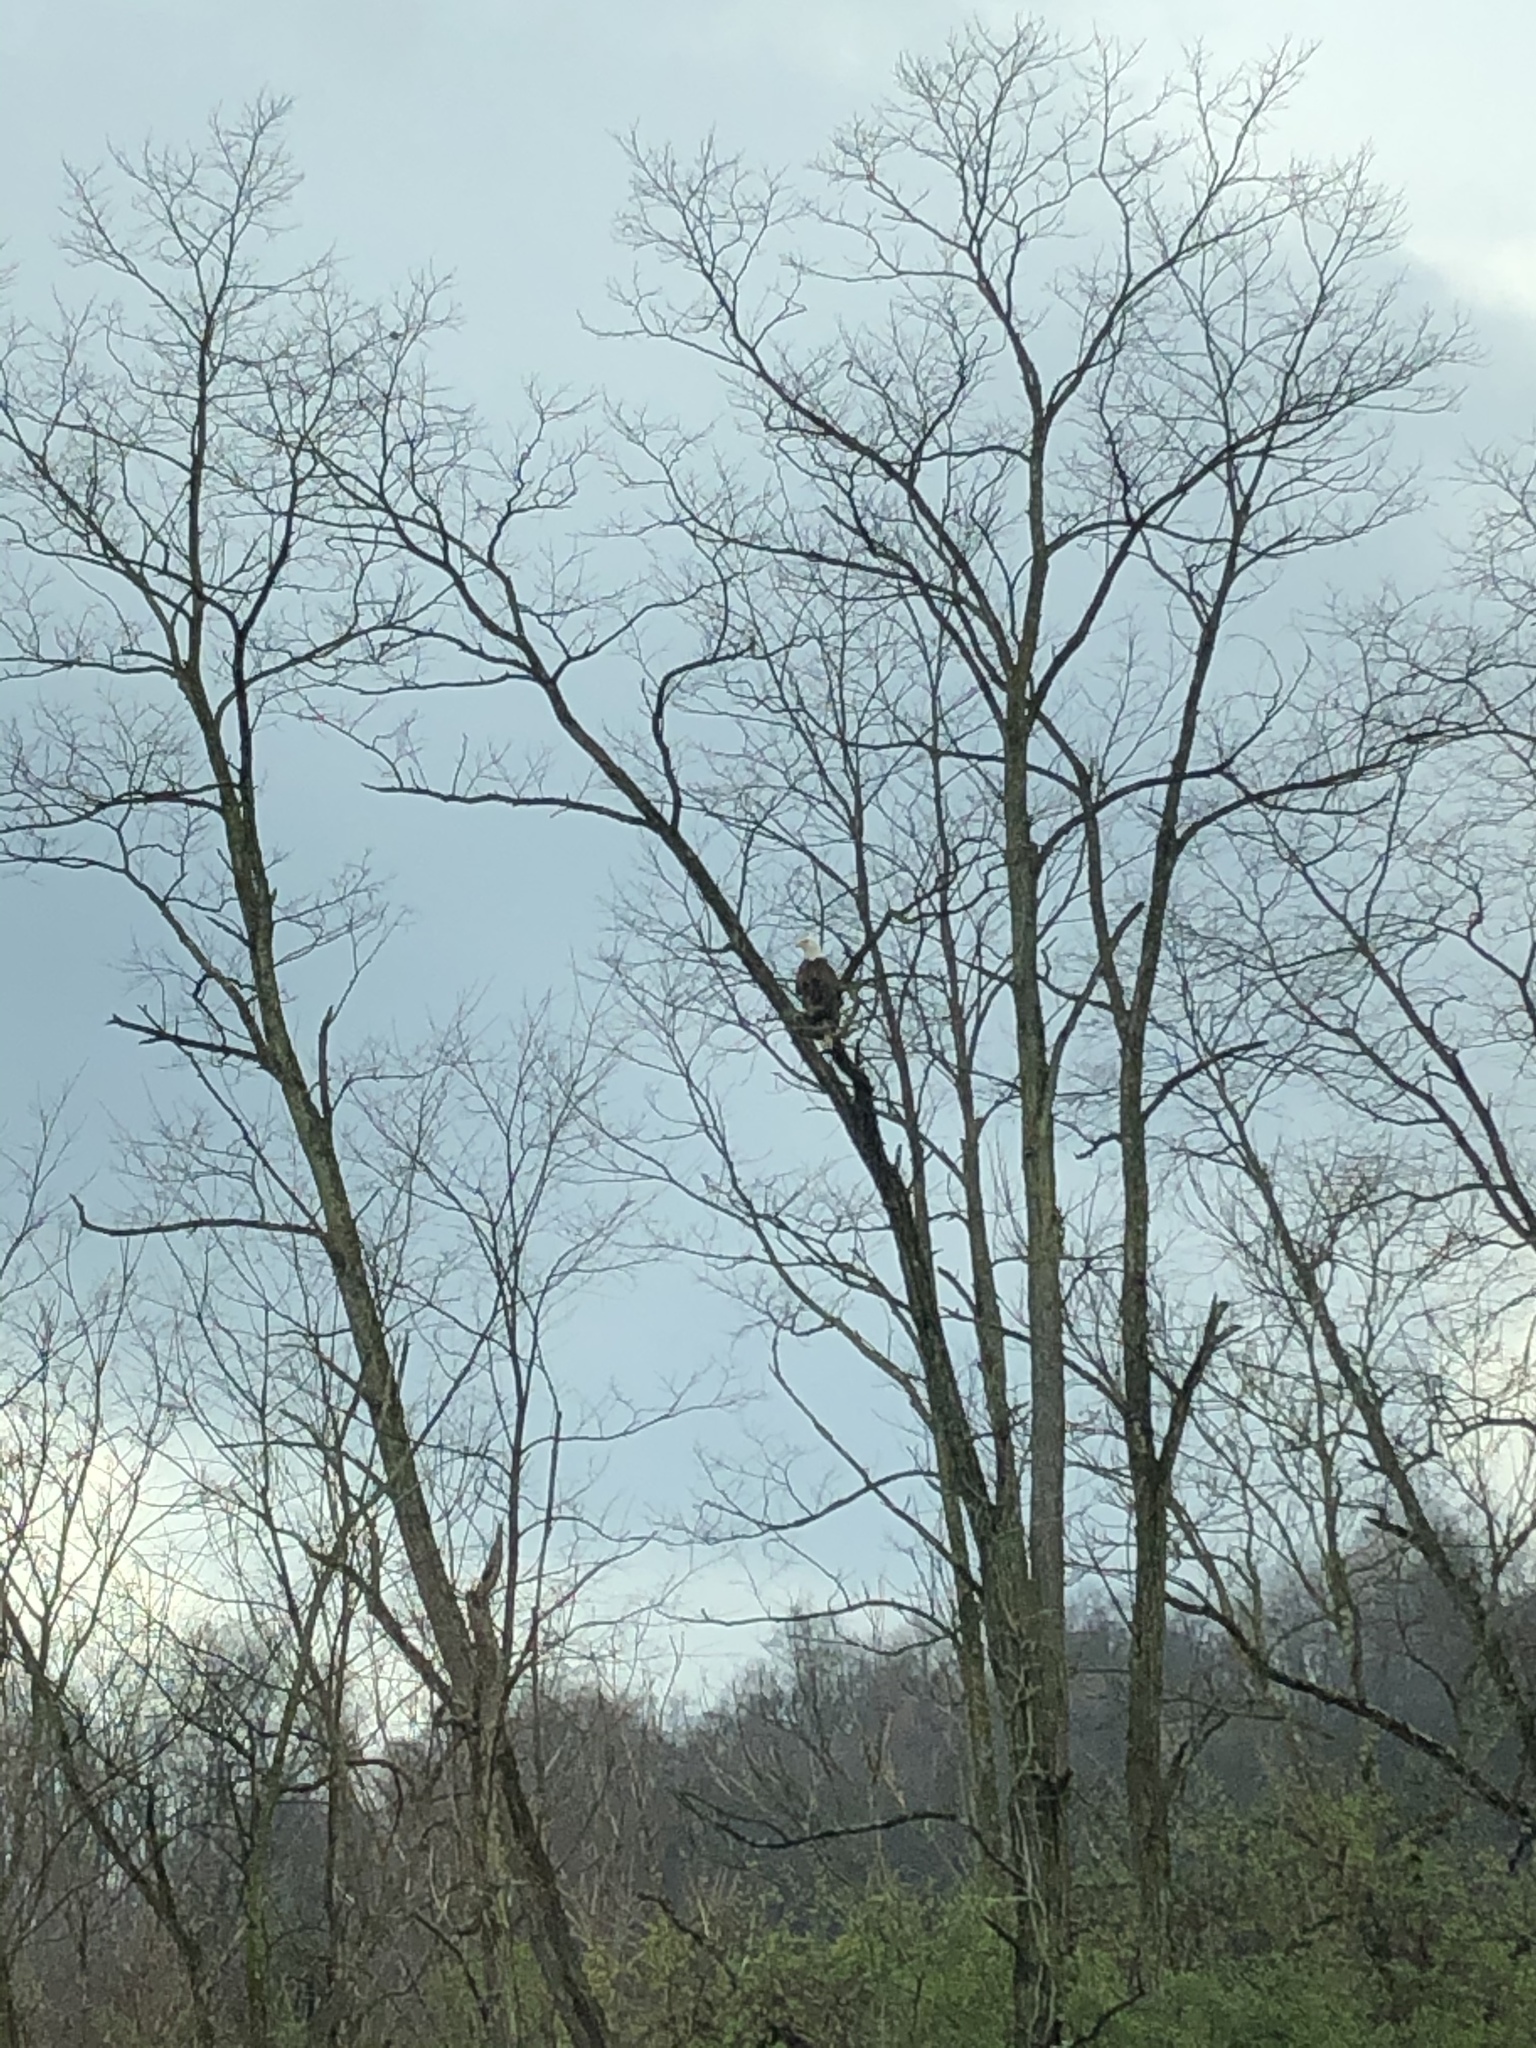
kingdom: Animalia
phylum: Chordata
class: Aves
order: Accipitriformes
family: Accipitridae
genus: Haliaeetus
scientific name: Haliaeetus leucocephalus
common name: Bald eagle
